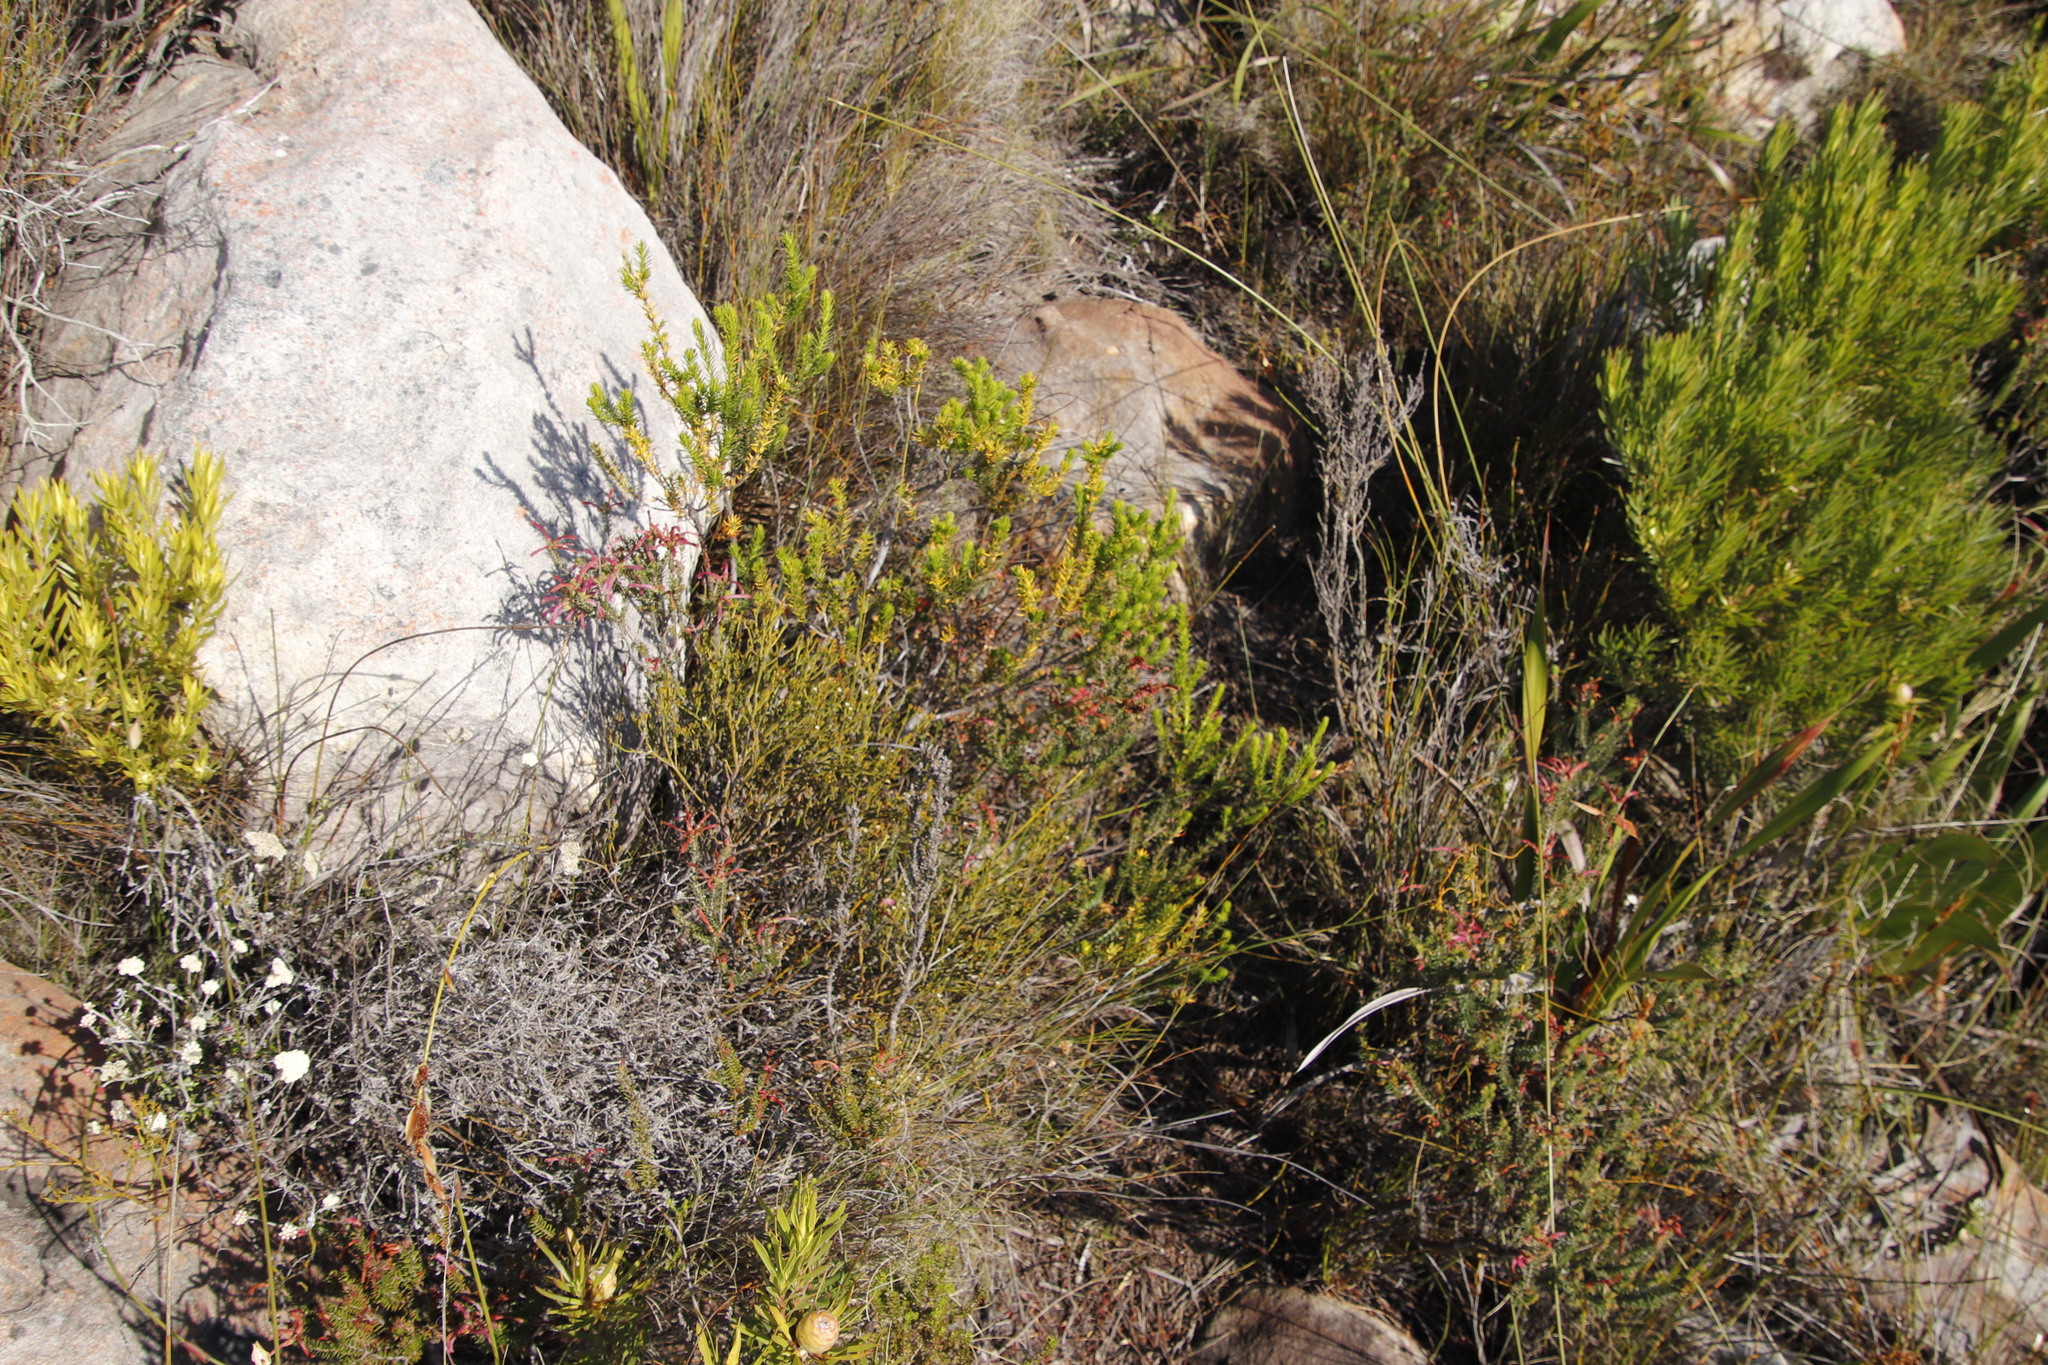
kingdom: Plantae
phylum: Tracheophyta
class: Magnoliopsida
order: Ericales
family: Ericaceae
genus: Erica
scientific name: Erica abietina
